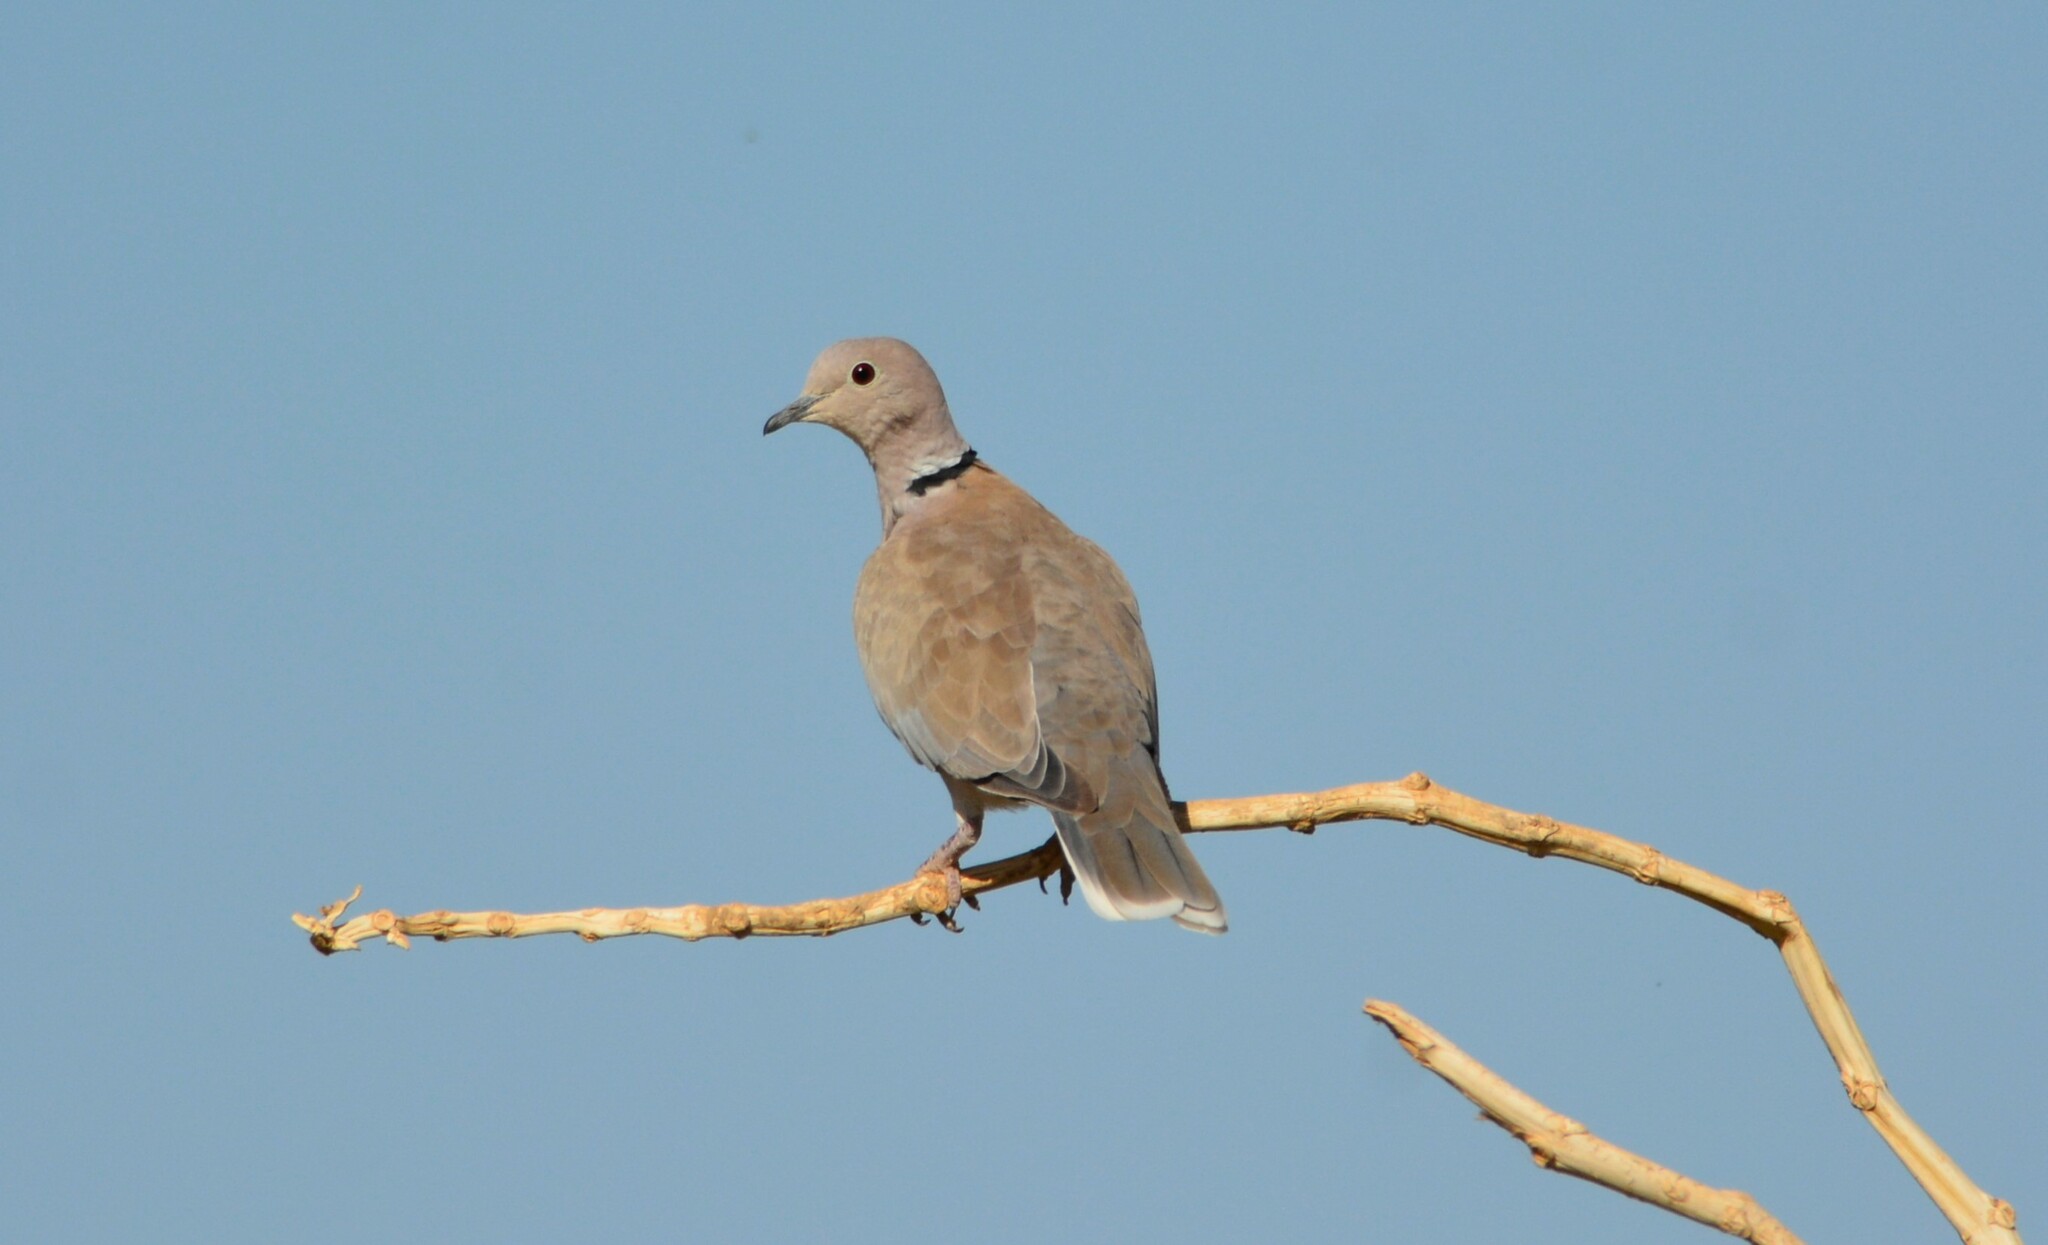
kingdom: Animalia
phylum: Chordata
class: Aves
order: Columbiformes
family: Columbidae
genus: Streptopelia
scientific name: Streptopelia roseogrisea
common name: African collared dove
